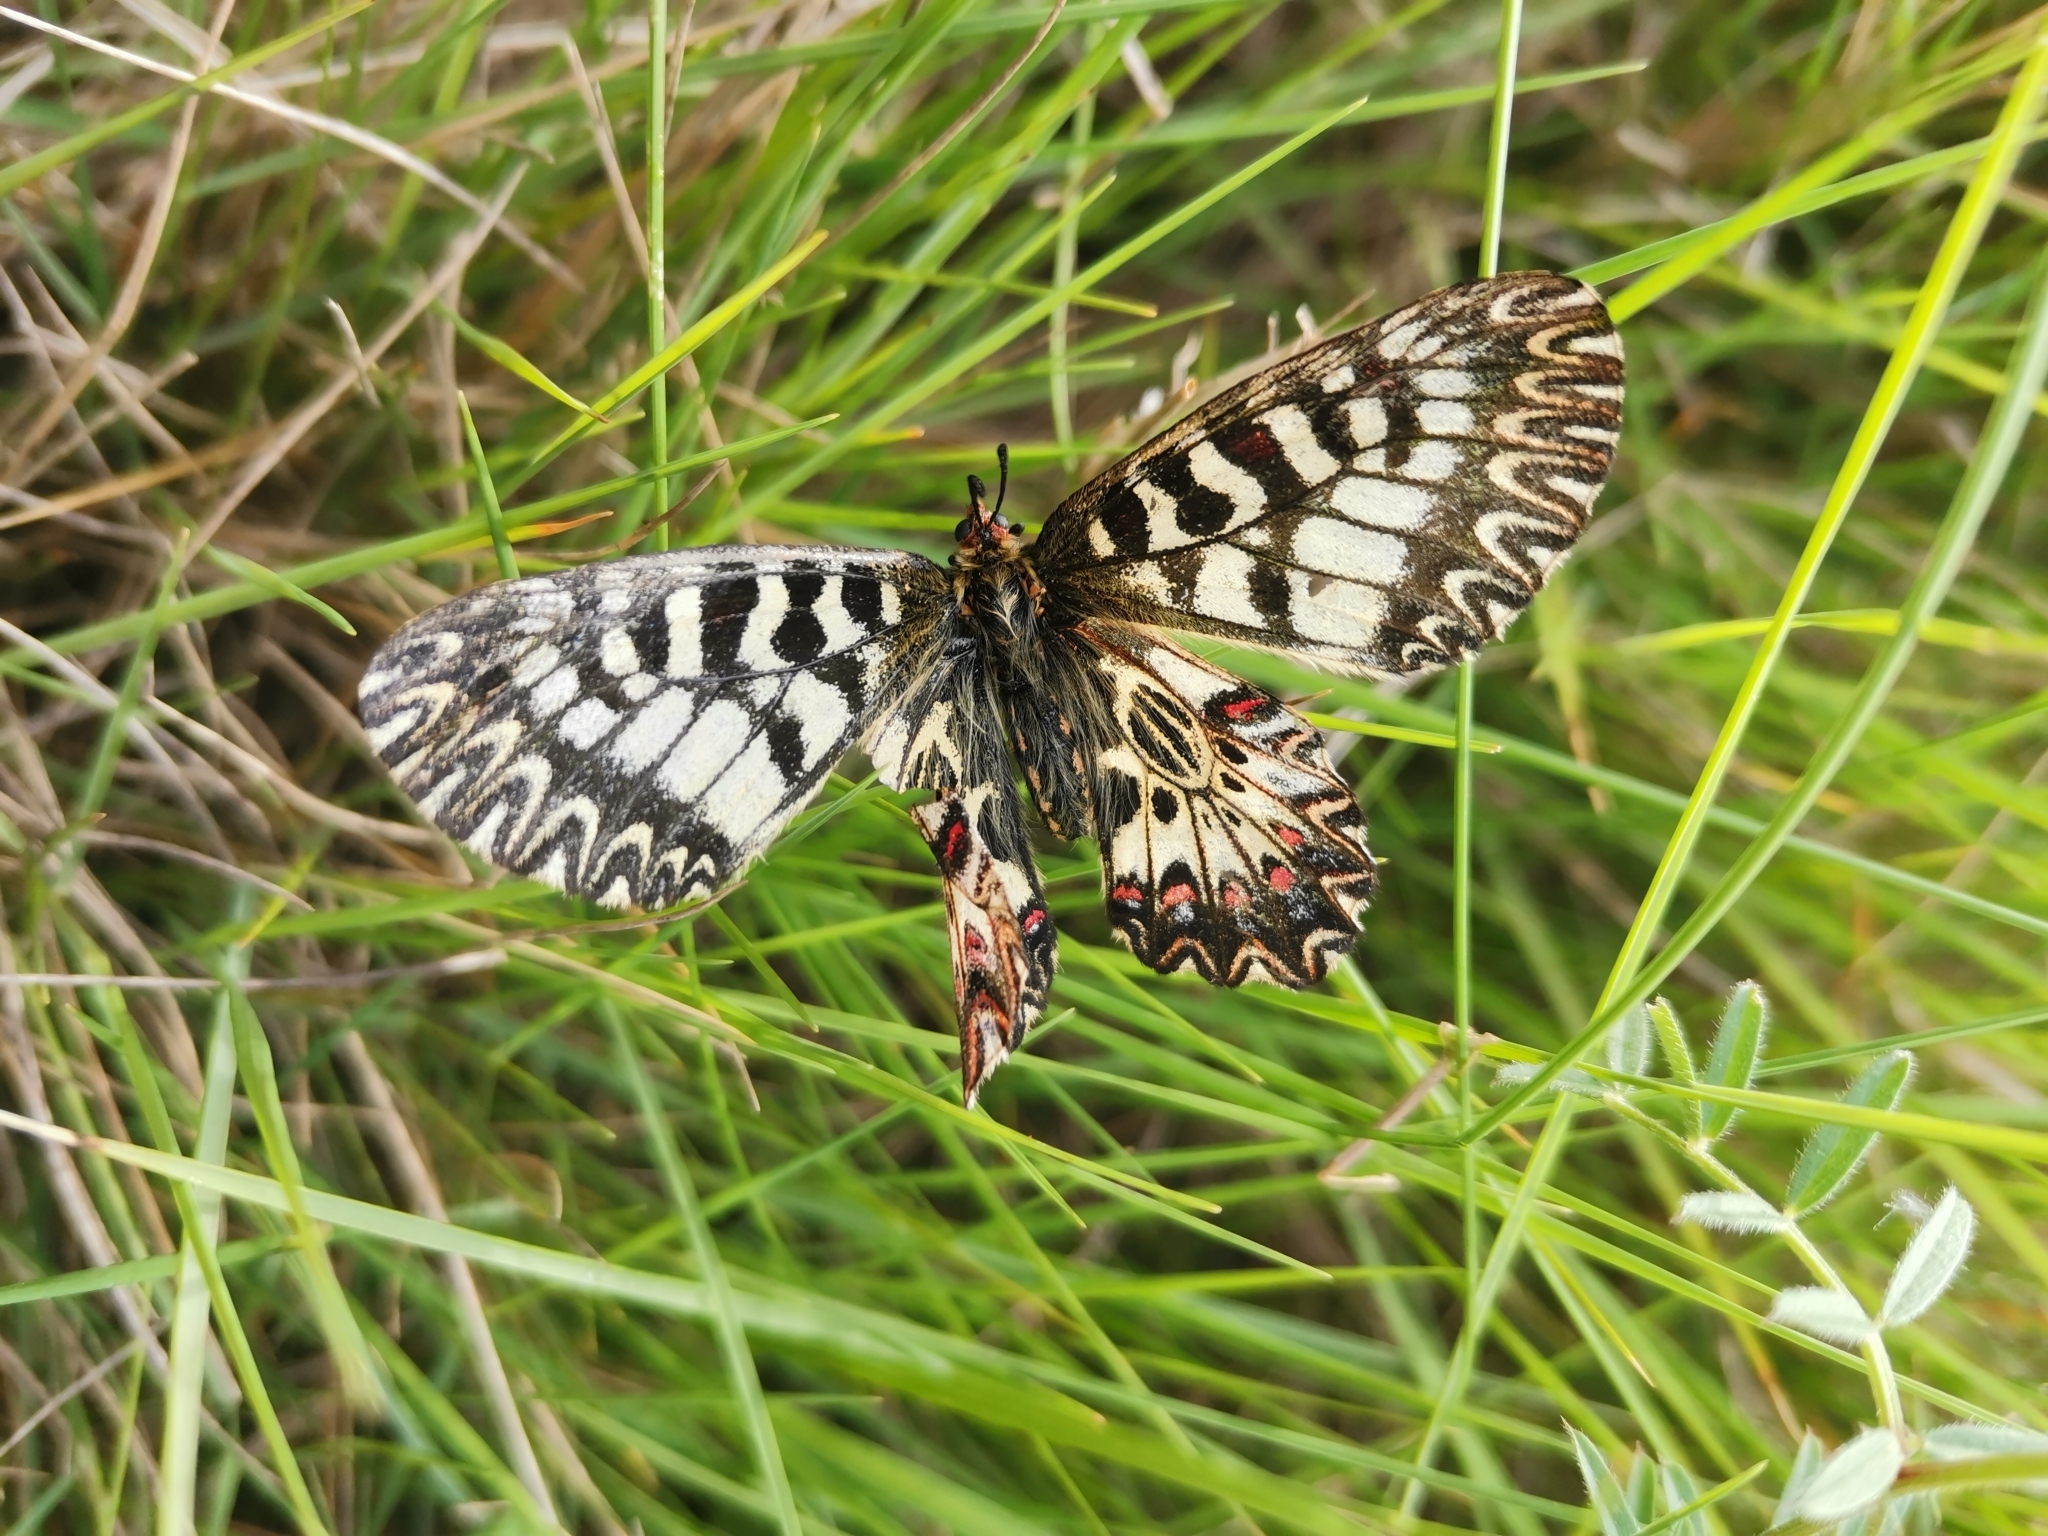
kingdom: Animalia
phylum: Arthropoda
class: Insecta
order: Lepidoptera
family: Papilionidae
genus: Zerynthia
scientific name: Zerynthia polyxena
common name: Southern festoon
